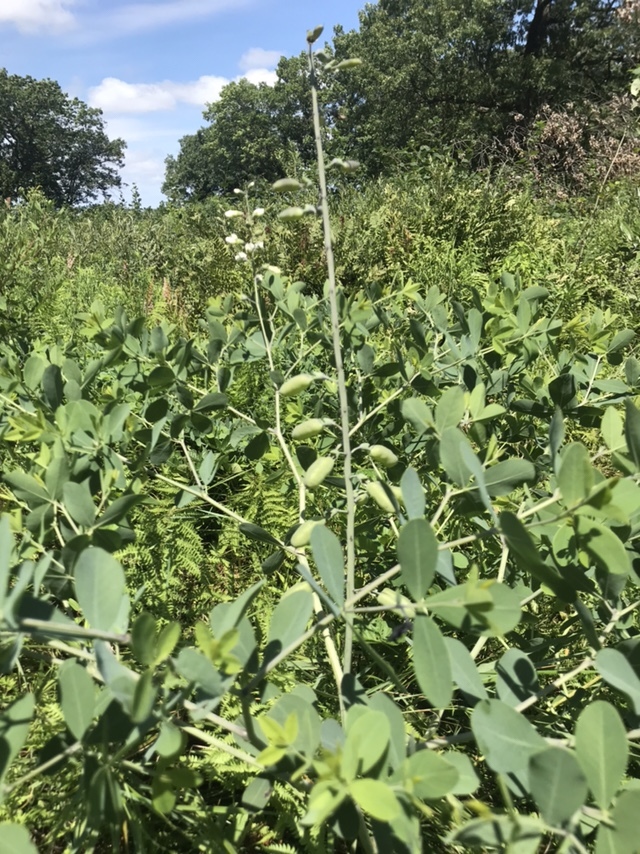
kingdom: Plantae
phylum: Tracheophyta
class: Magnoliopsida
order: Fabales
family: Fabaceae
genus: Baptisia
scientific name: Baptisia alba
